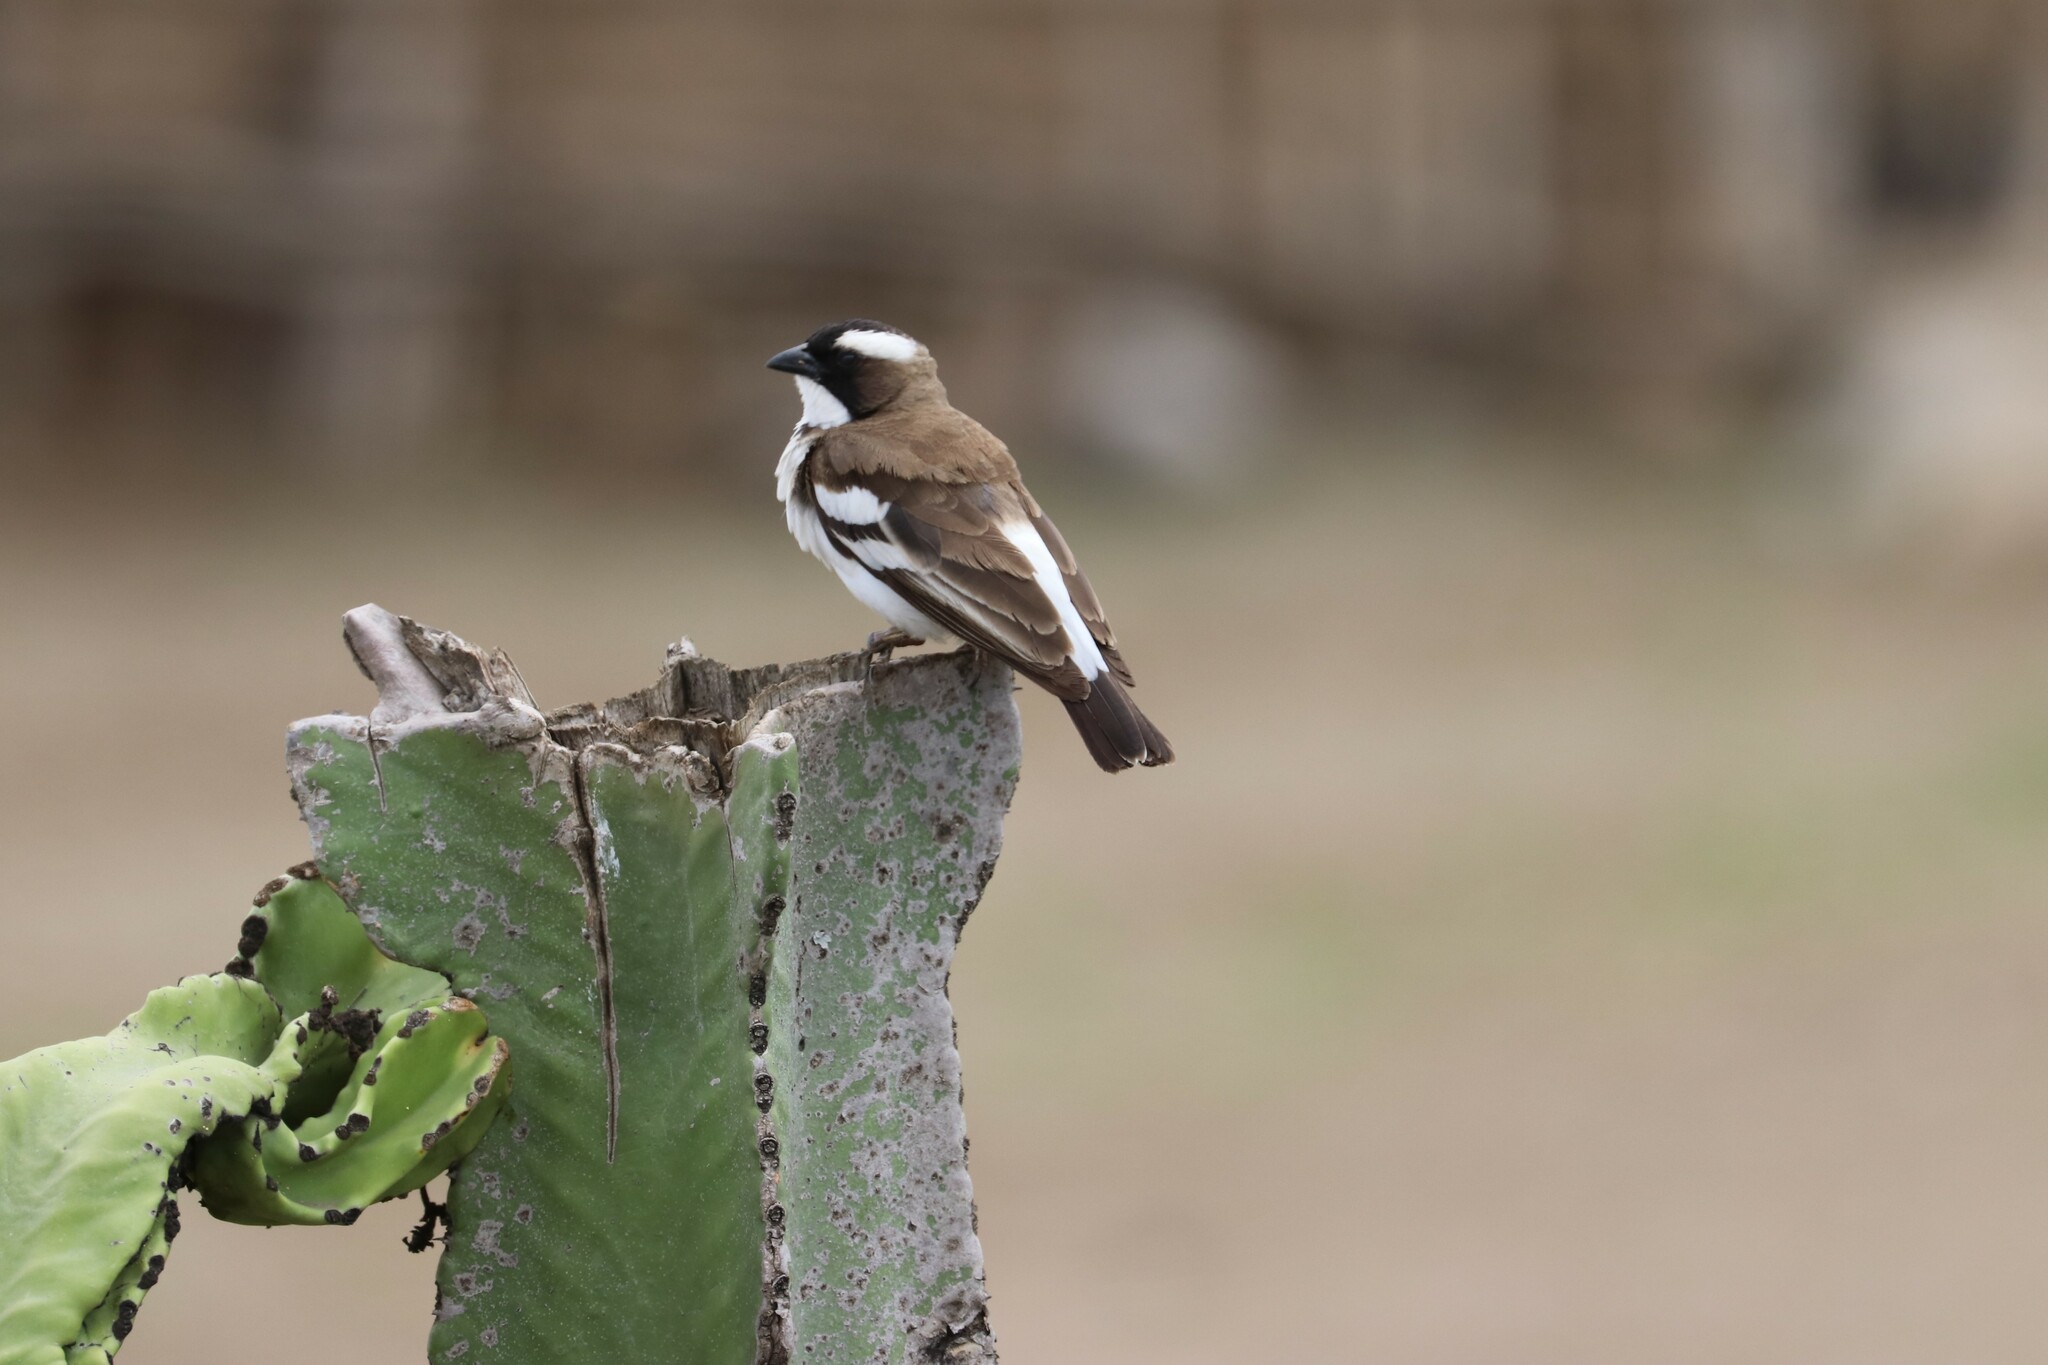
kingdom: Animalia
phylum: Chordata
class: Aves
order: Passeriformes
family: Passeridae
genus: Plocepasser
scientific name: Plocepasser mahali
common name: White-browed sparrow-weaver
